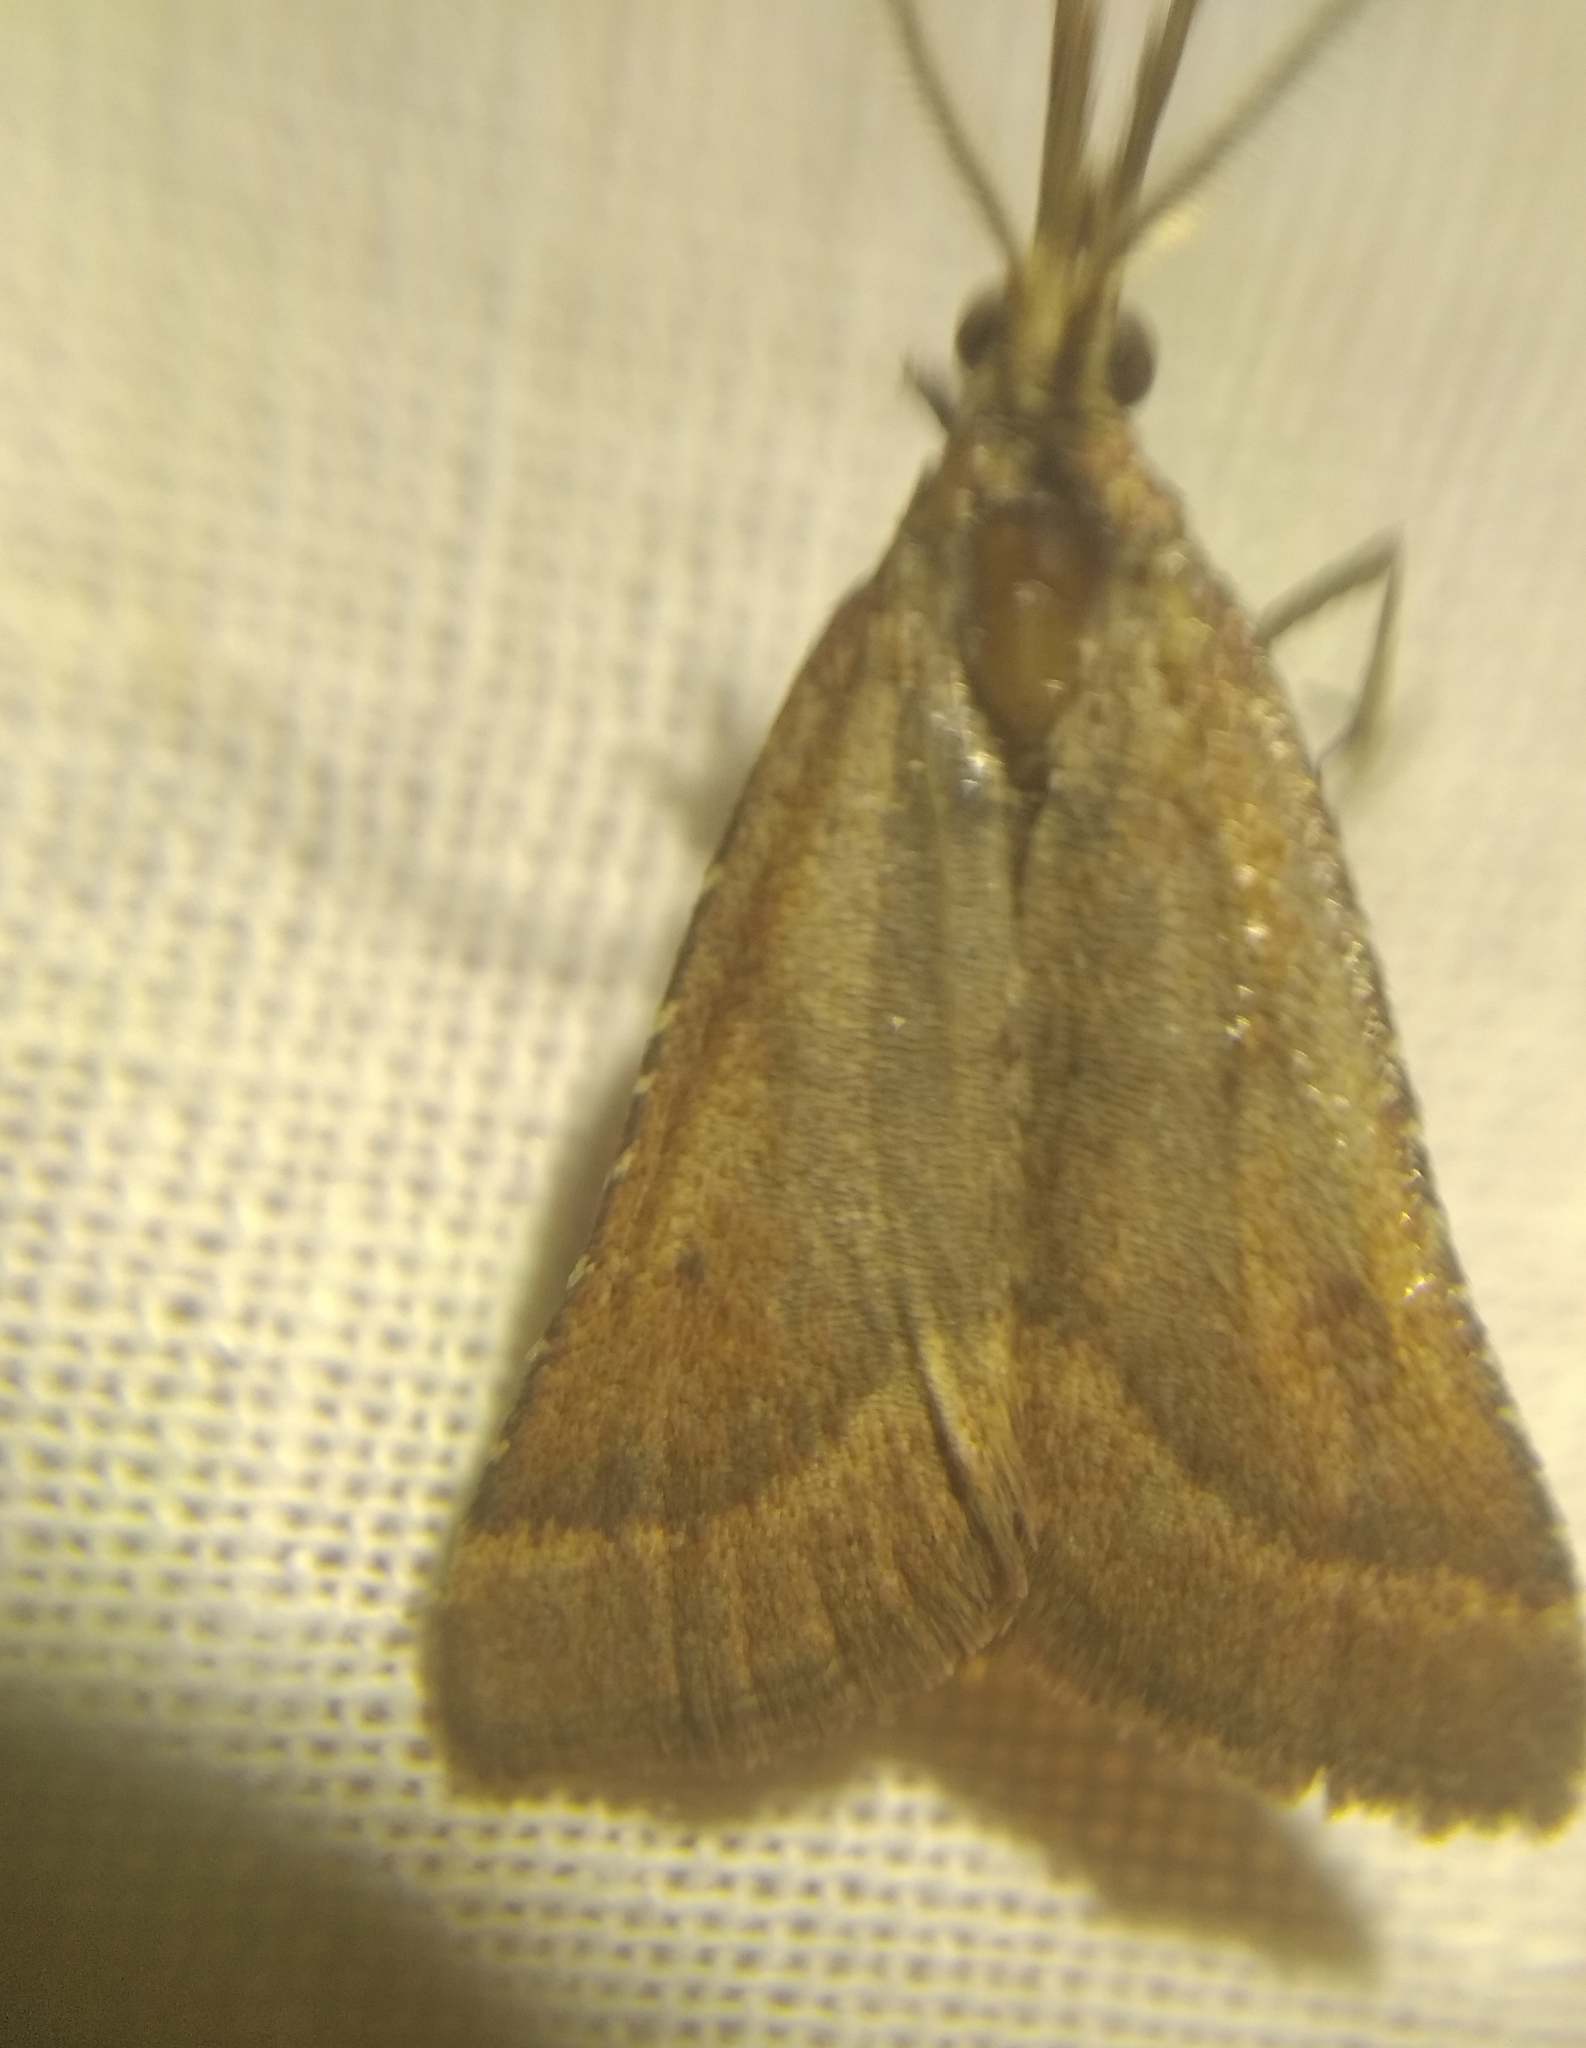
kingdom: Animalia
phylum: Arthropoda
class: Insecta
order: Lepidoptera
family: Pyralidae
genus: Synaphe
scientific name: Synaphe punctalis
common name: Long-legged tabby
